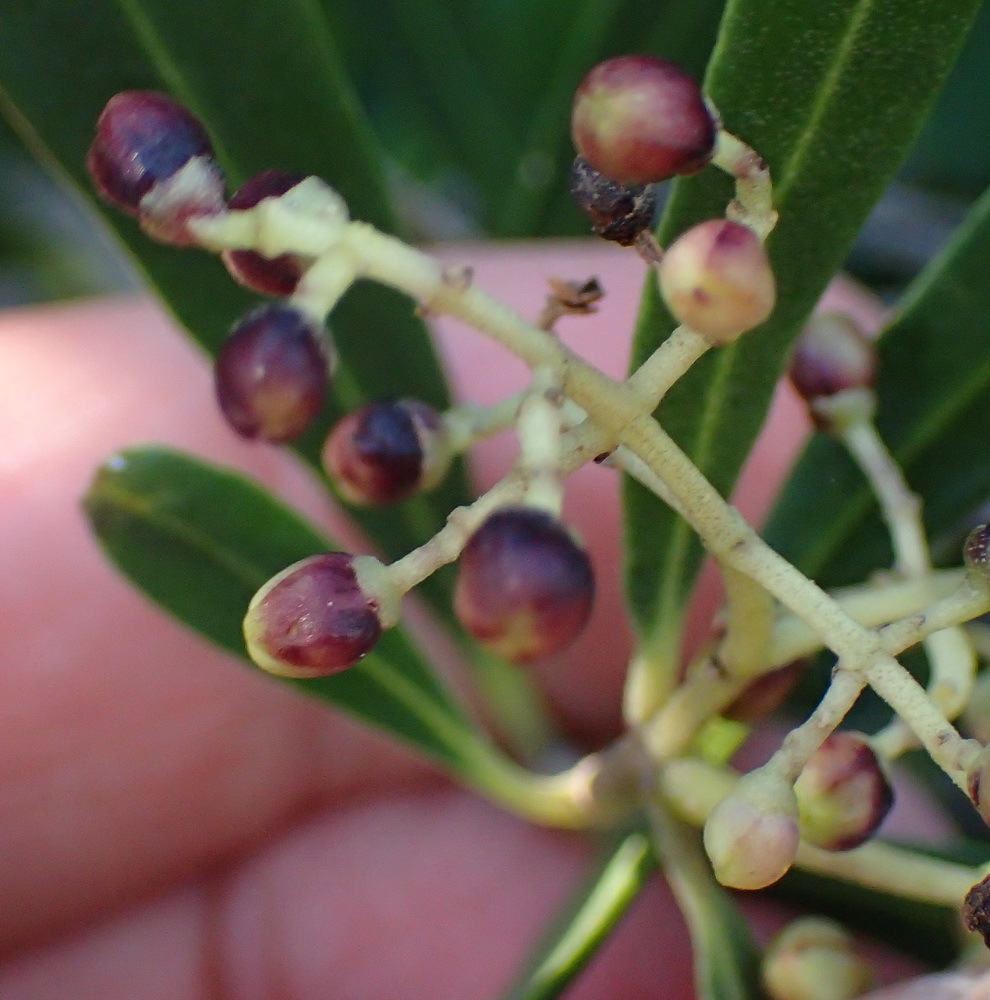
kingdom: Plantae
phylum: Tracheophyta
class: Magnoliopsida
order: Lamiales
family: Oleaceae
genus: Olea
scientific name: Olea exasperata
